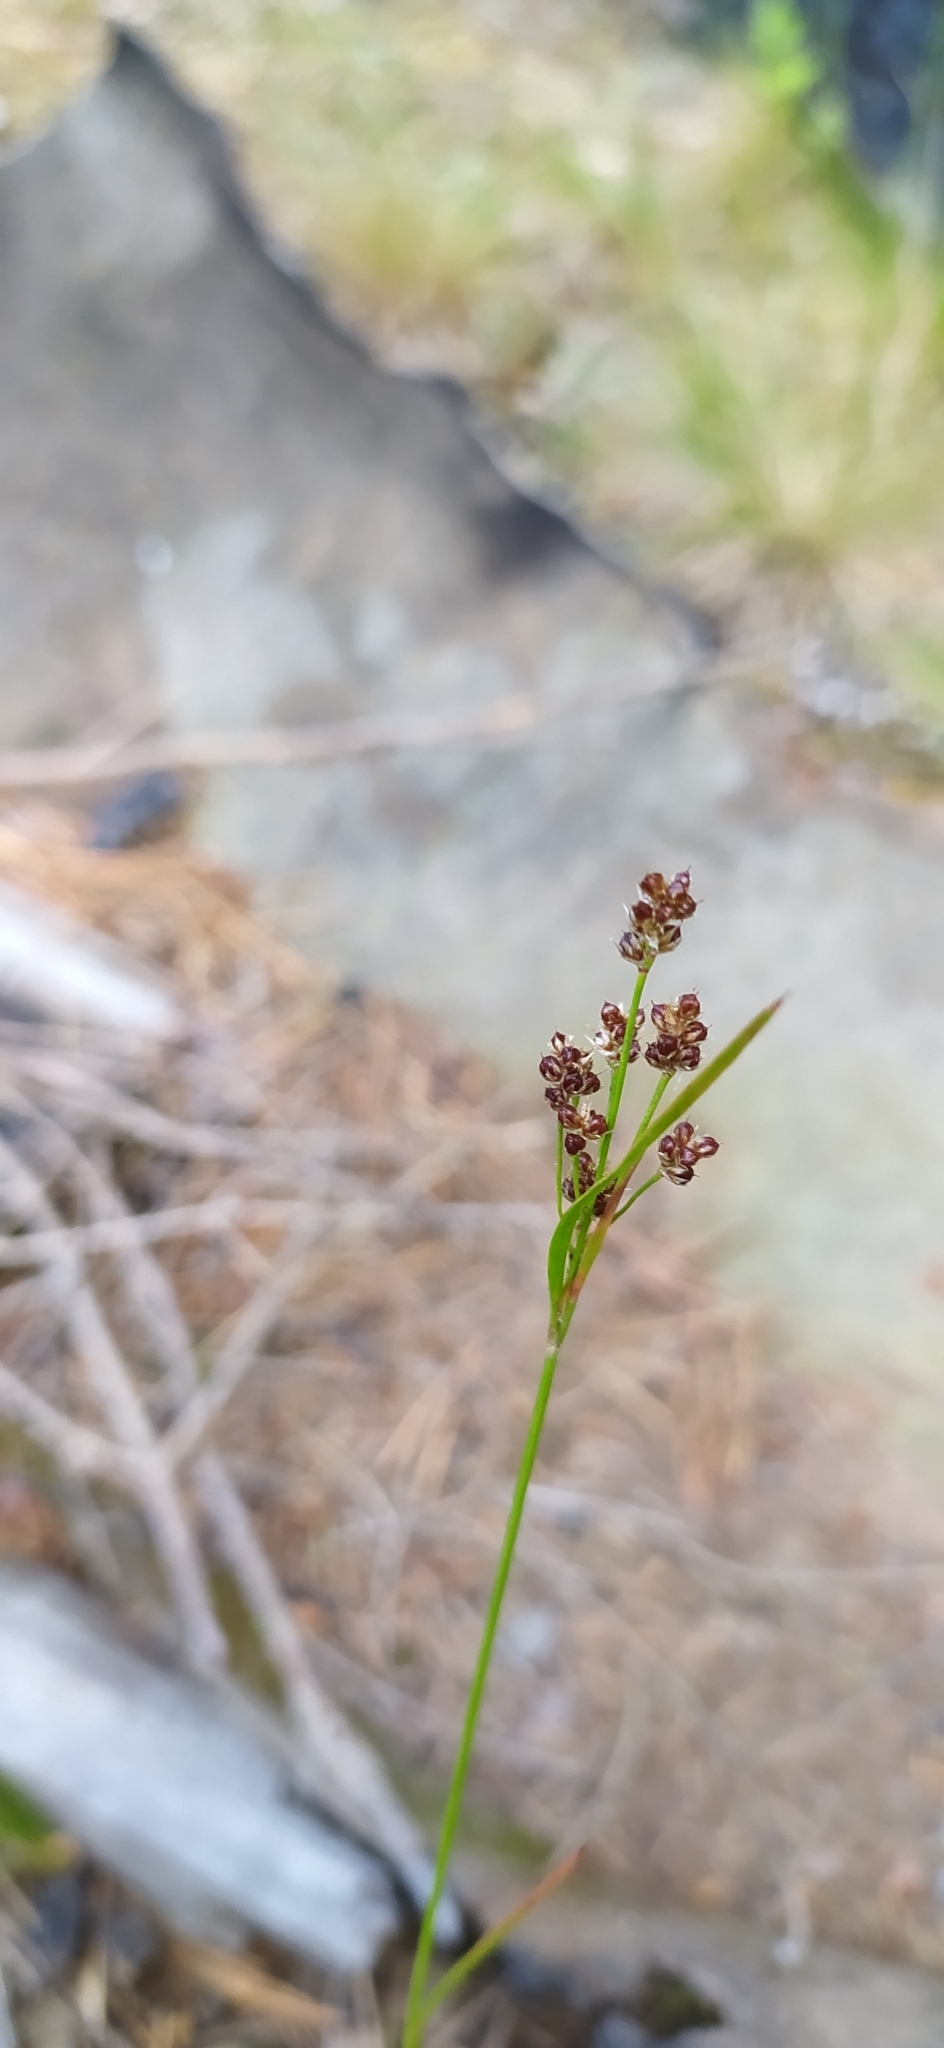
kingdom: Plantae
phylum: Tracheophyta
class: Liliopsida
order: Poales
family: Juncaceae
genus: Juncus
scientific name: Juncus compressus
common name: Round-fruited rush
